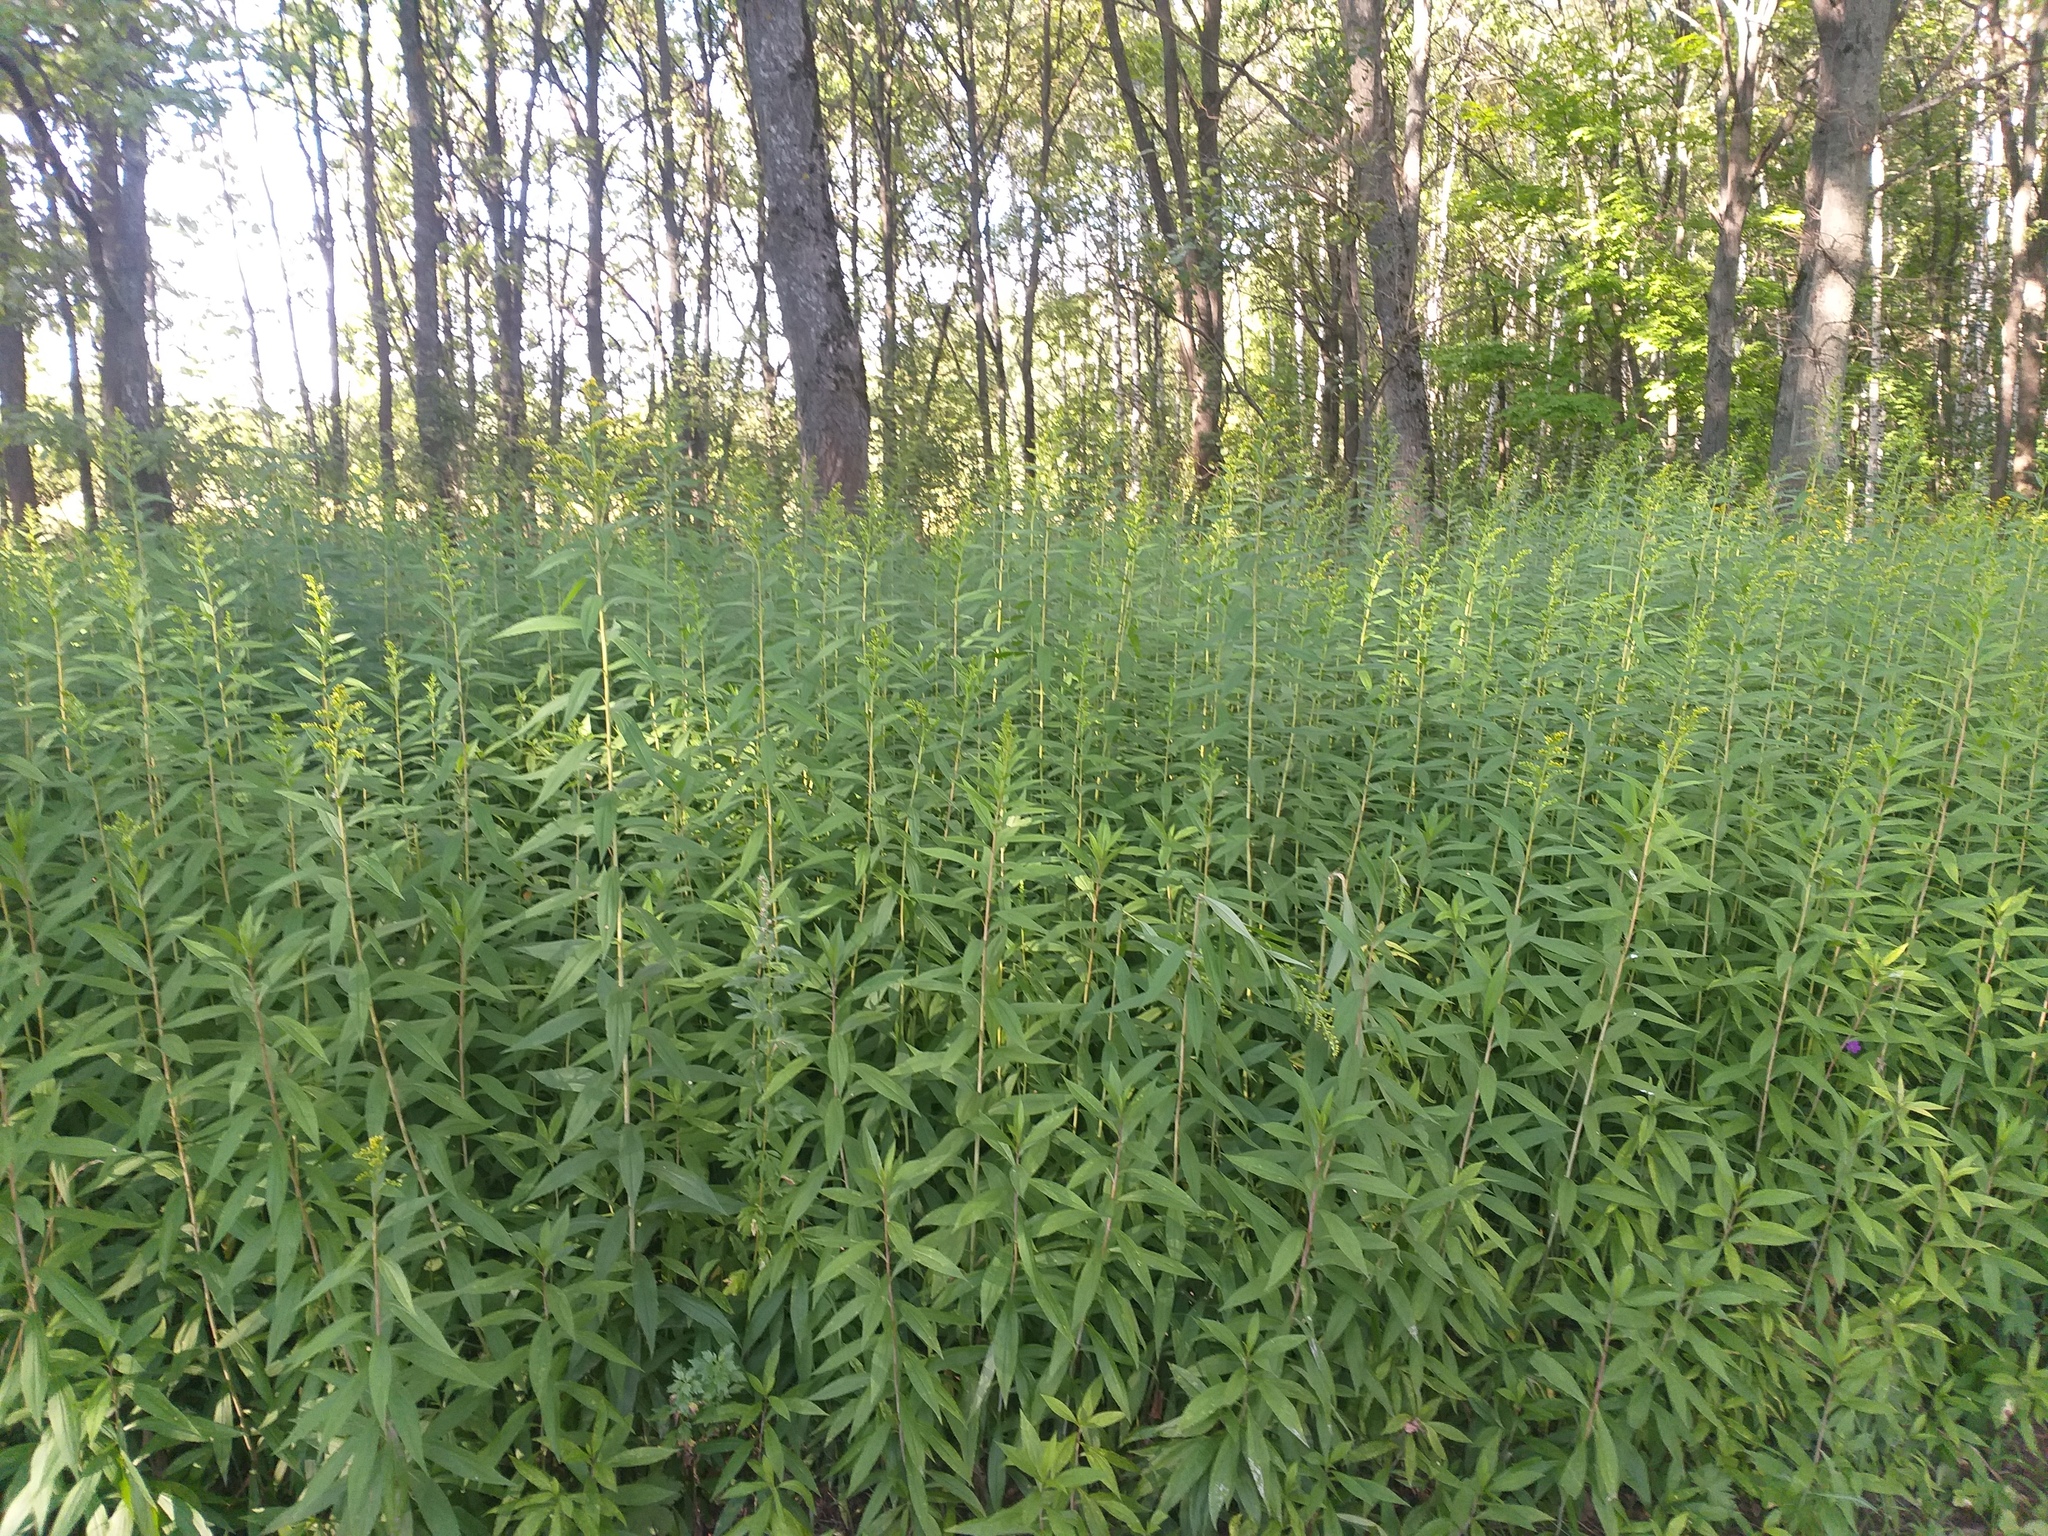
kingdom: Plantae
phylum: Tracheophyta
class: Magnoliopsida
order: Asterales
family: Asteraceae
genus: Solidago
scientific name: Solidago gigantea
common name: Giant goldenrod
